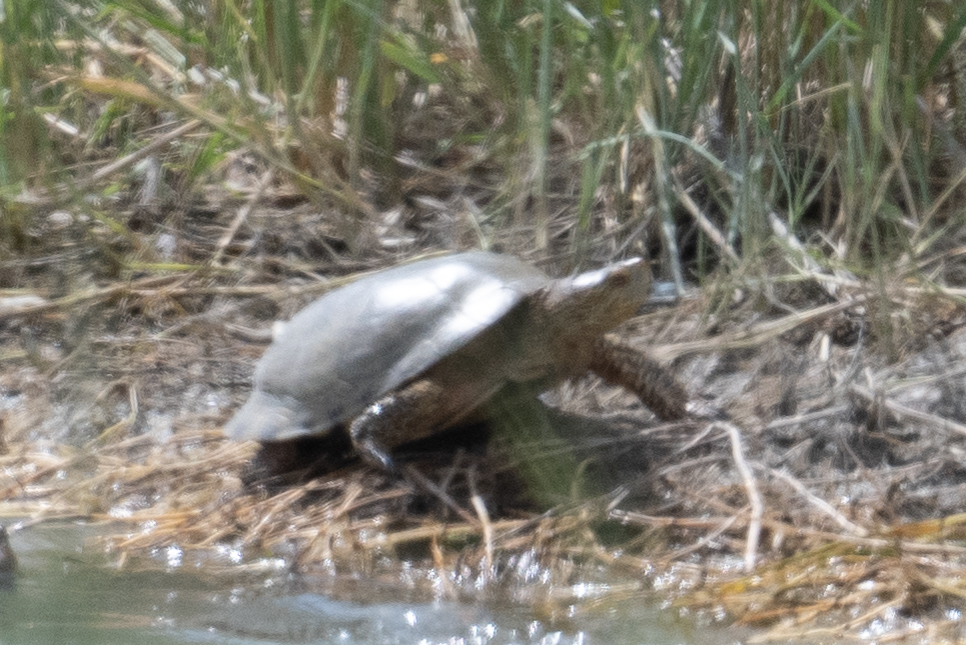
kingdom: Animalia
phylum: Chordata
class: Testudines
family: Emydidae
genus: Actinemys
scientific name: Actinemys marmorata
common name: Western pond turtle
